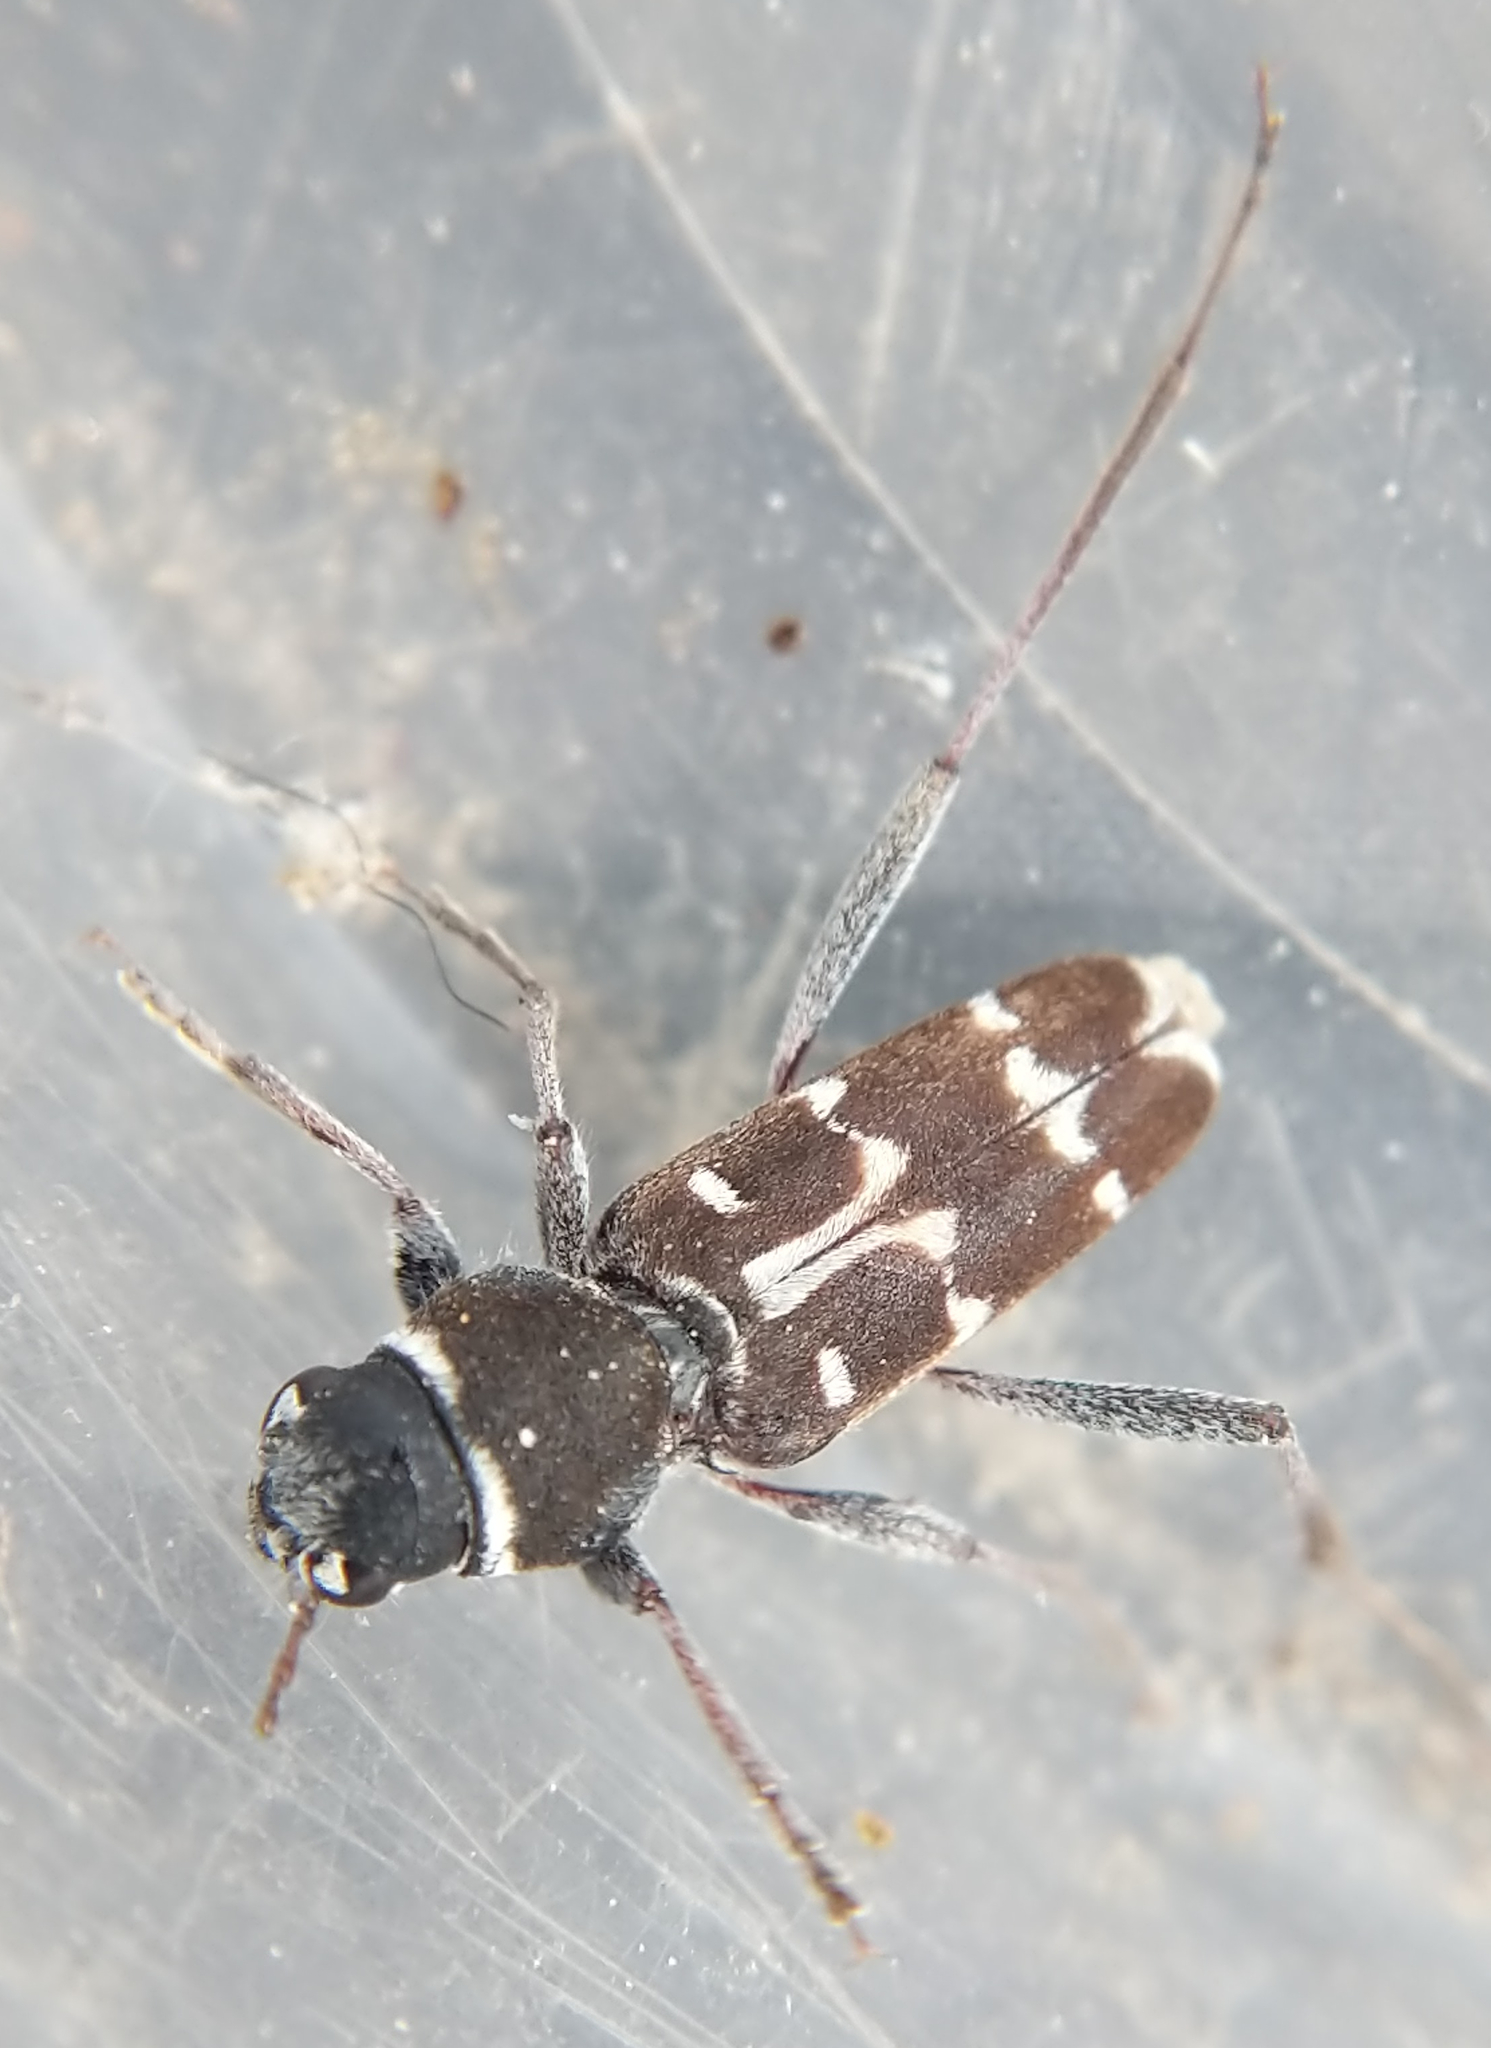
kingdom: Animalia
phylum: Arthropoda
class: Insecta
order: Coleoptera
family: Cerambycidae
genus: Xylotrechus
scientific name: Xylotrechus undulatus
